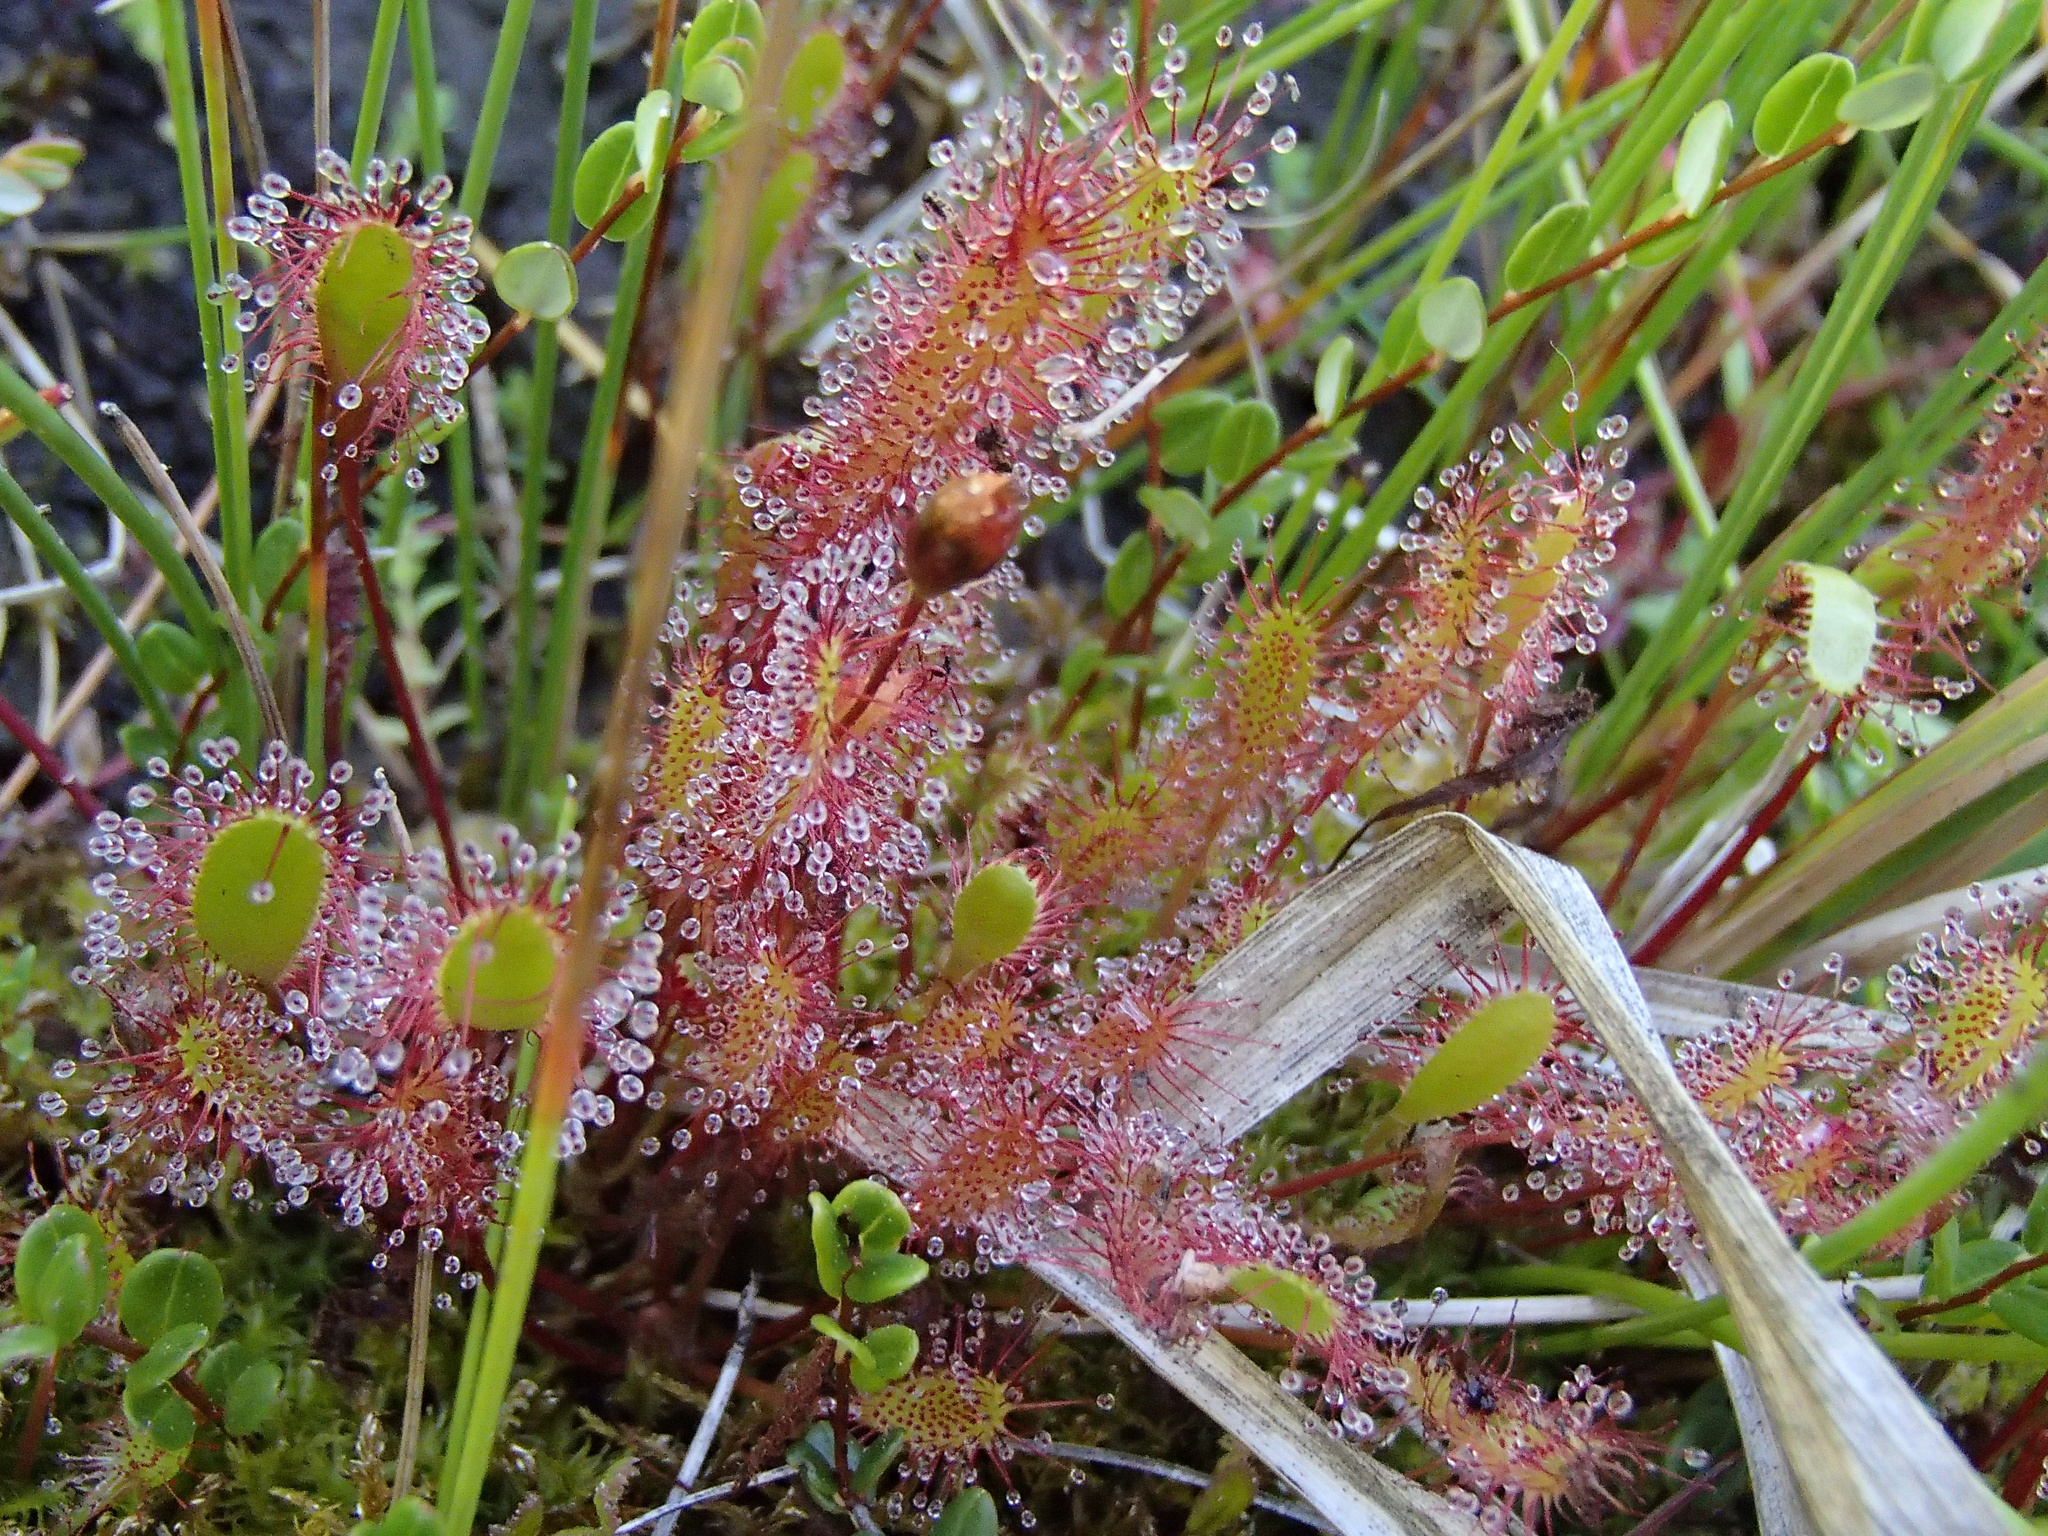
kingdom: Plantae
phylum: Tracheophyta
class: Magnoliopsida
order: Caryophyllales
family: Droseraceae
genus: Drosera
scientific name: Drosera anglica
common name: Great sundew
